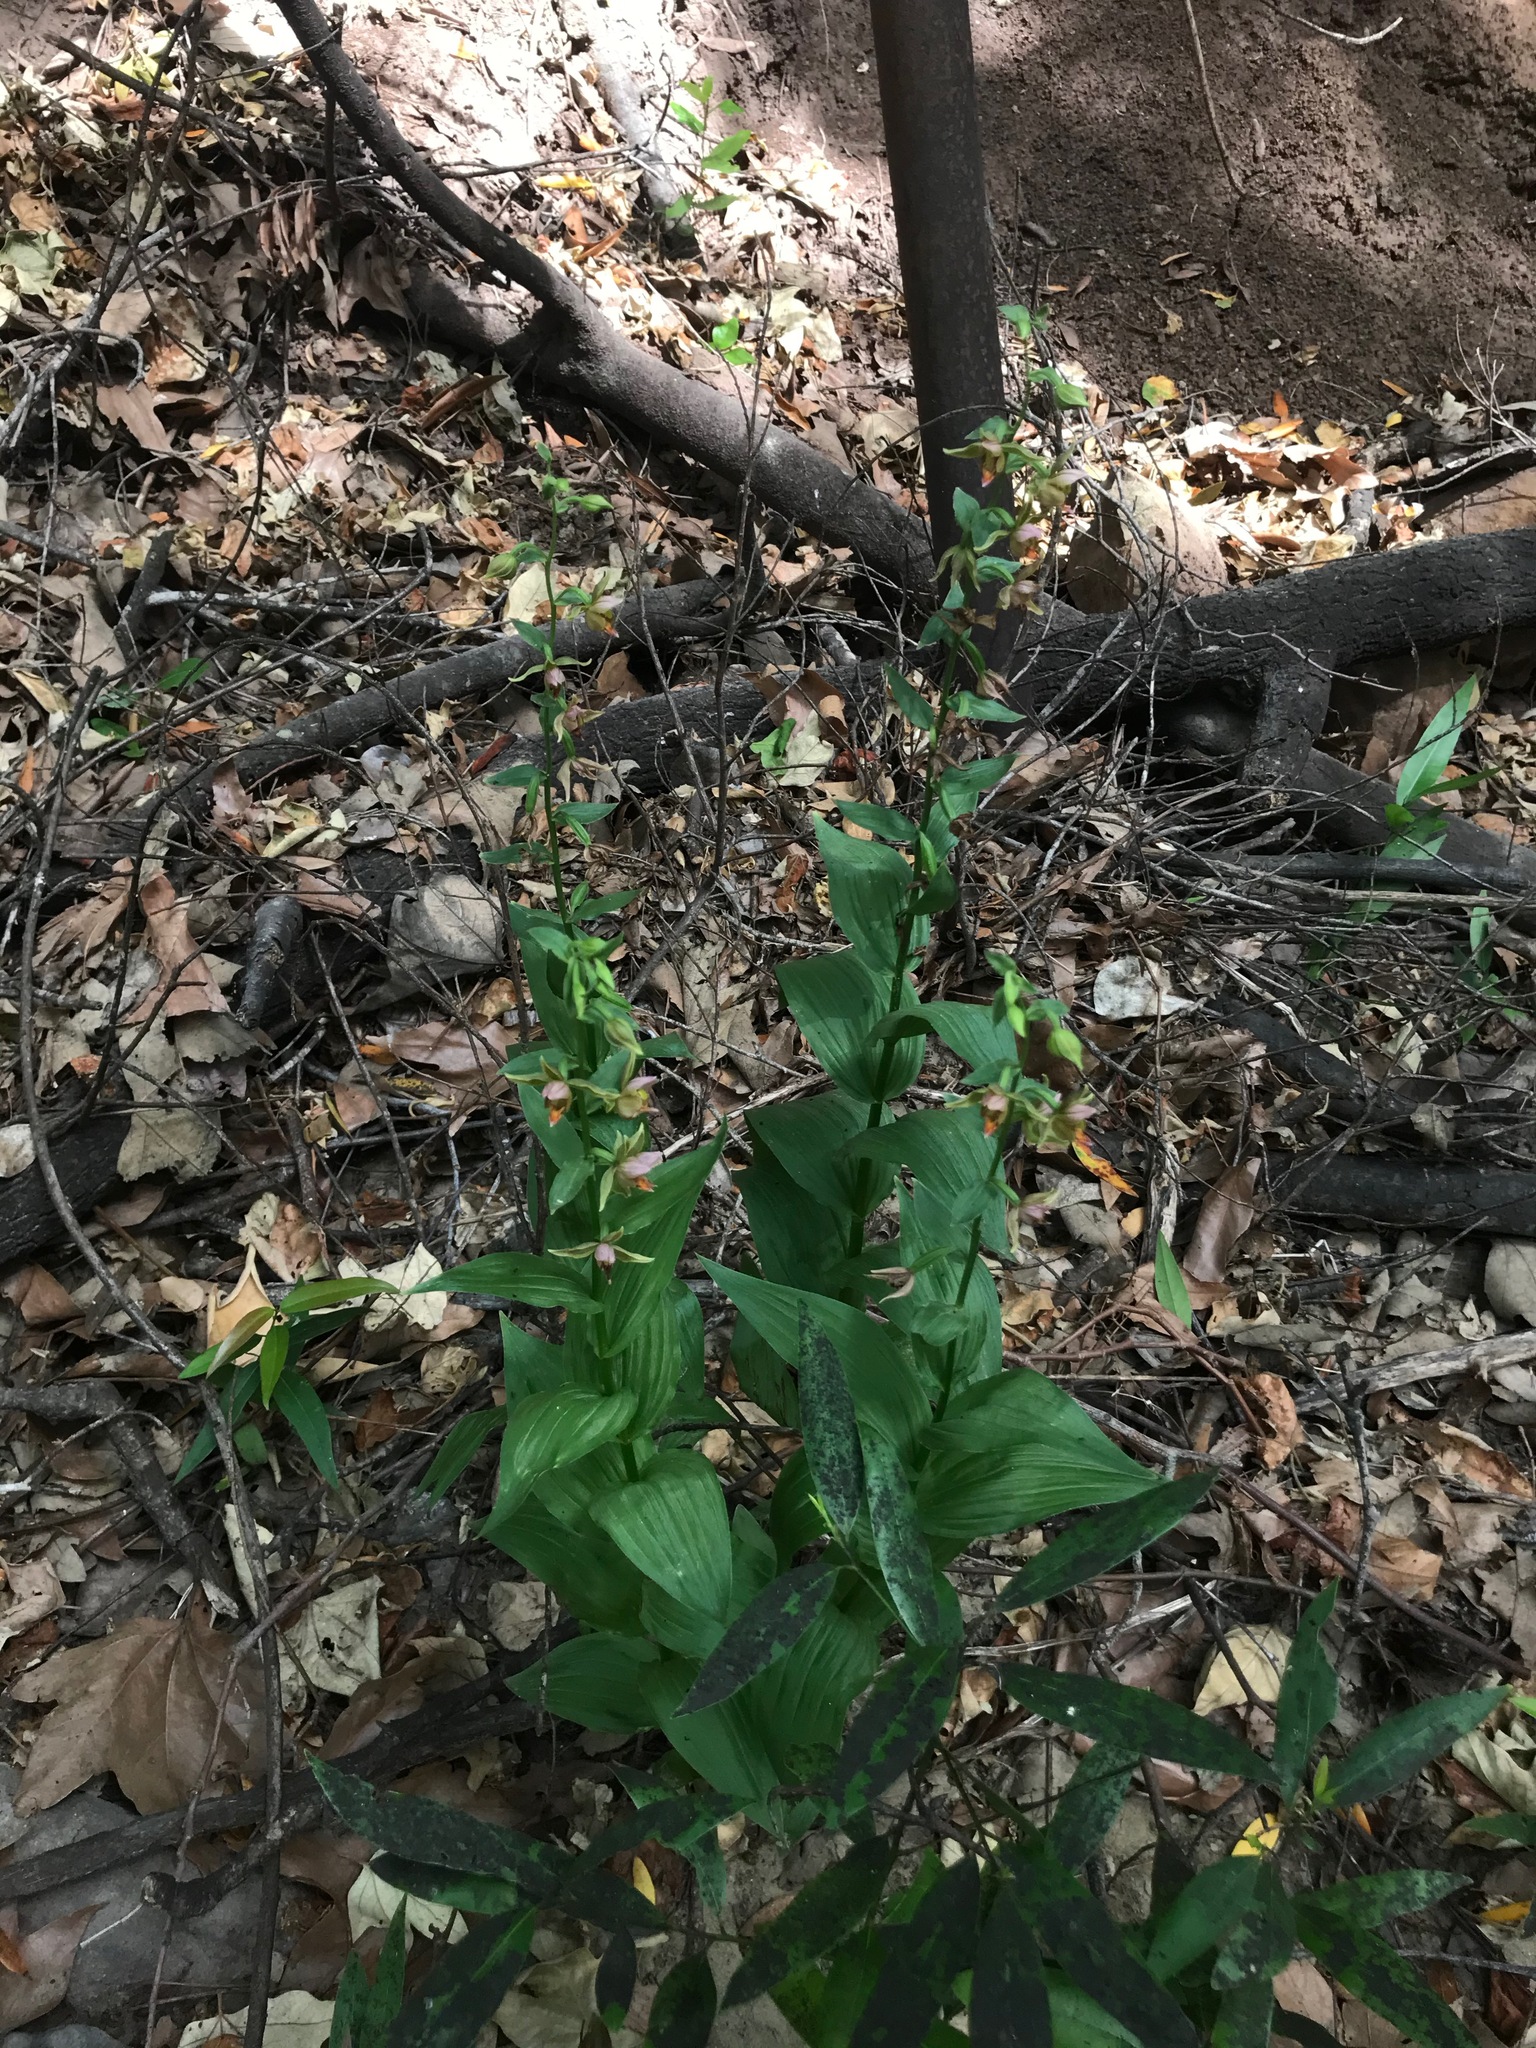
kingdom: Plantae
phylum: Tracheophyta
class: Liliopsida
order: Asparagales
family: Orchidaceae
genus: Epipactis
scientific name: Epipactis gigantea
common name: Chatterbox
